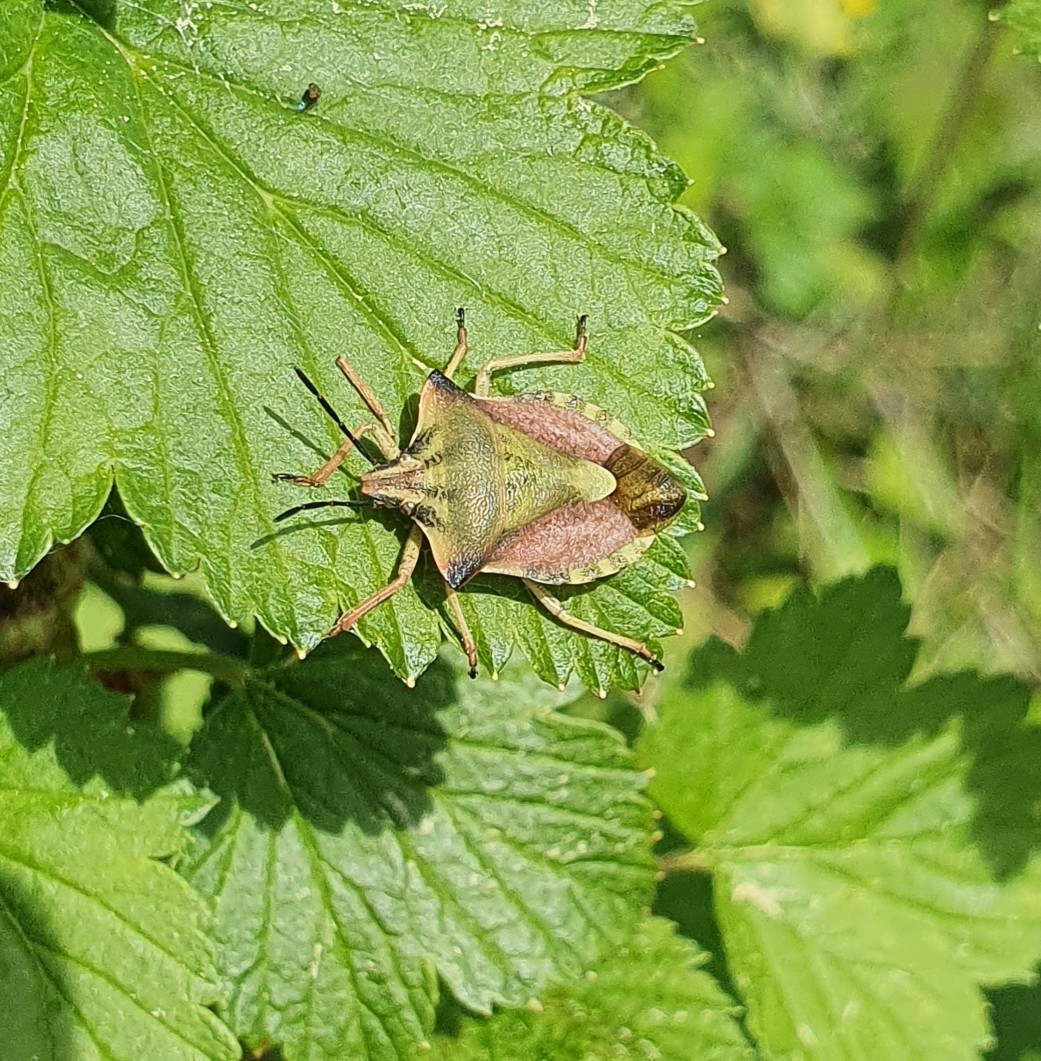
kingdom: Animalia
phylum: Arthropoda
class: Insecta
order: Hemiptera
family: Pentatomidae
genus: Carpocoris
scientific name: Carpocoris fuscispinus
